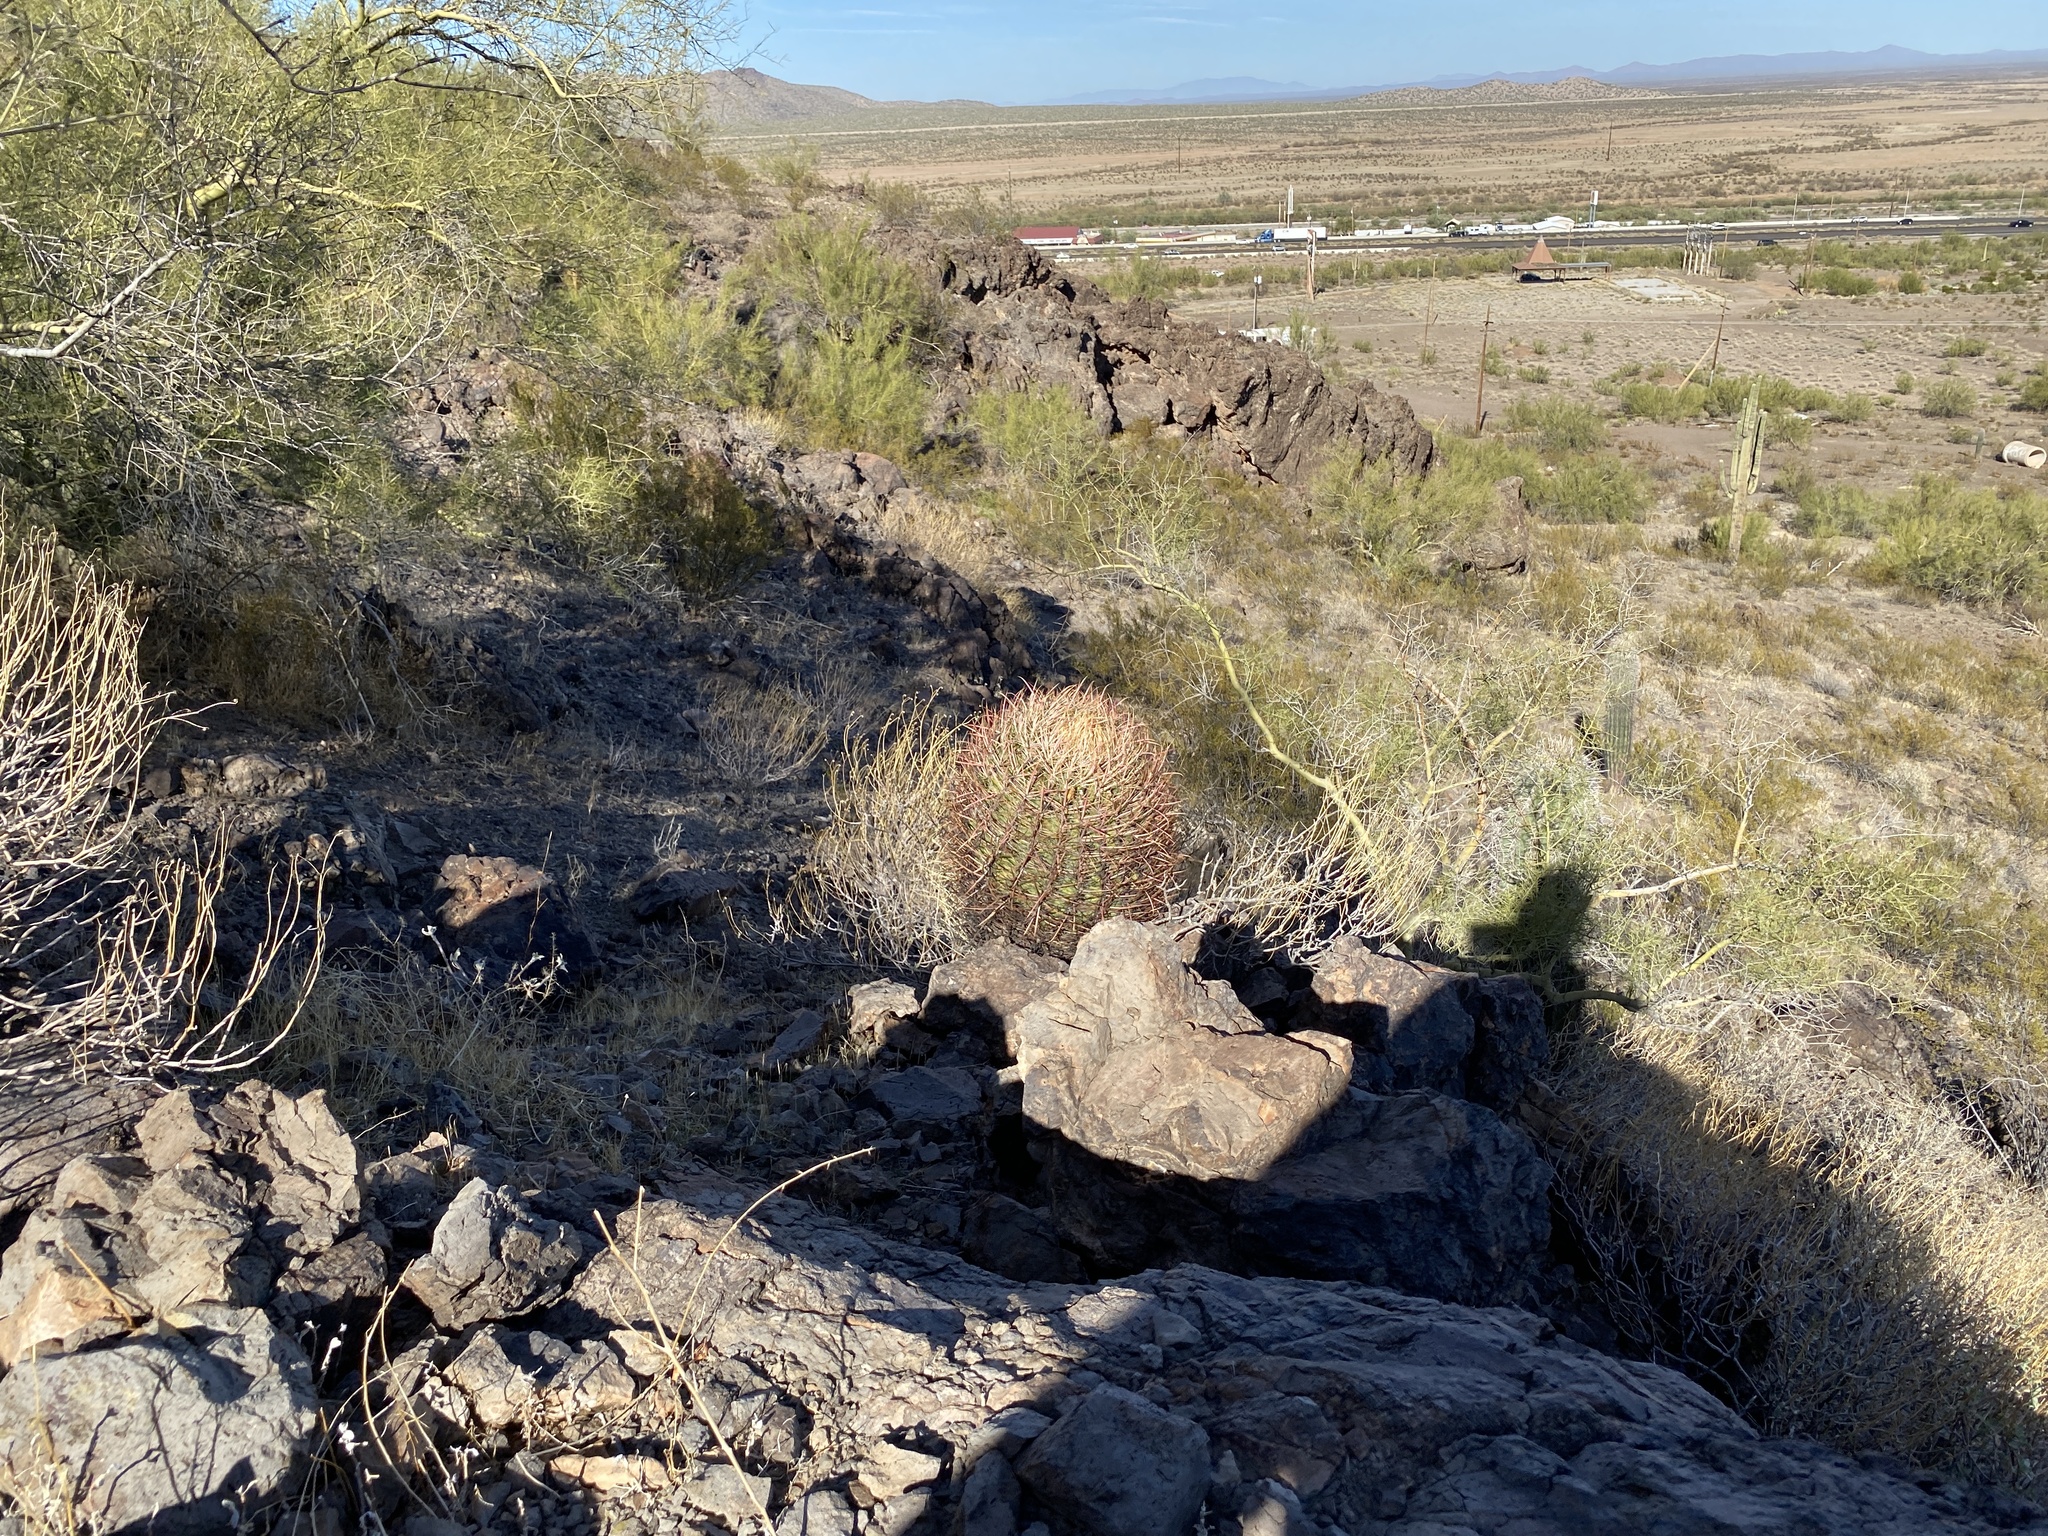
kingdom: Plantae
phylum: Tracheophyta
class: Magnoliopsida
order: Caryophyllales
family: Cactaceae
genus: Ferocactus
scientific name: Ferocactus cylindraceus
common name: California barrel cactus
